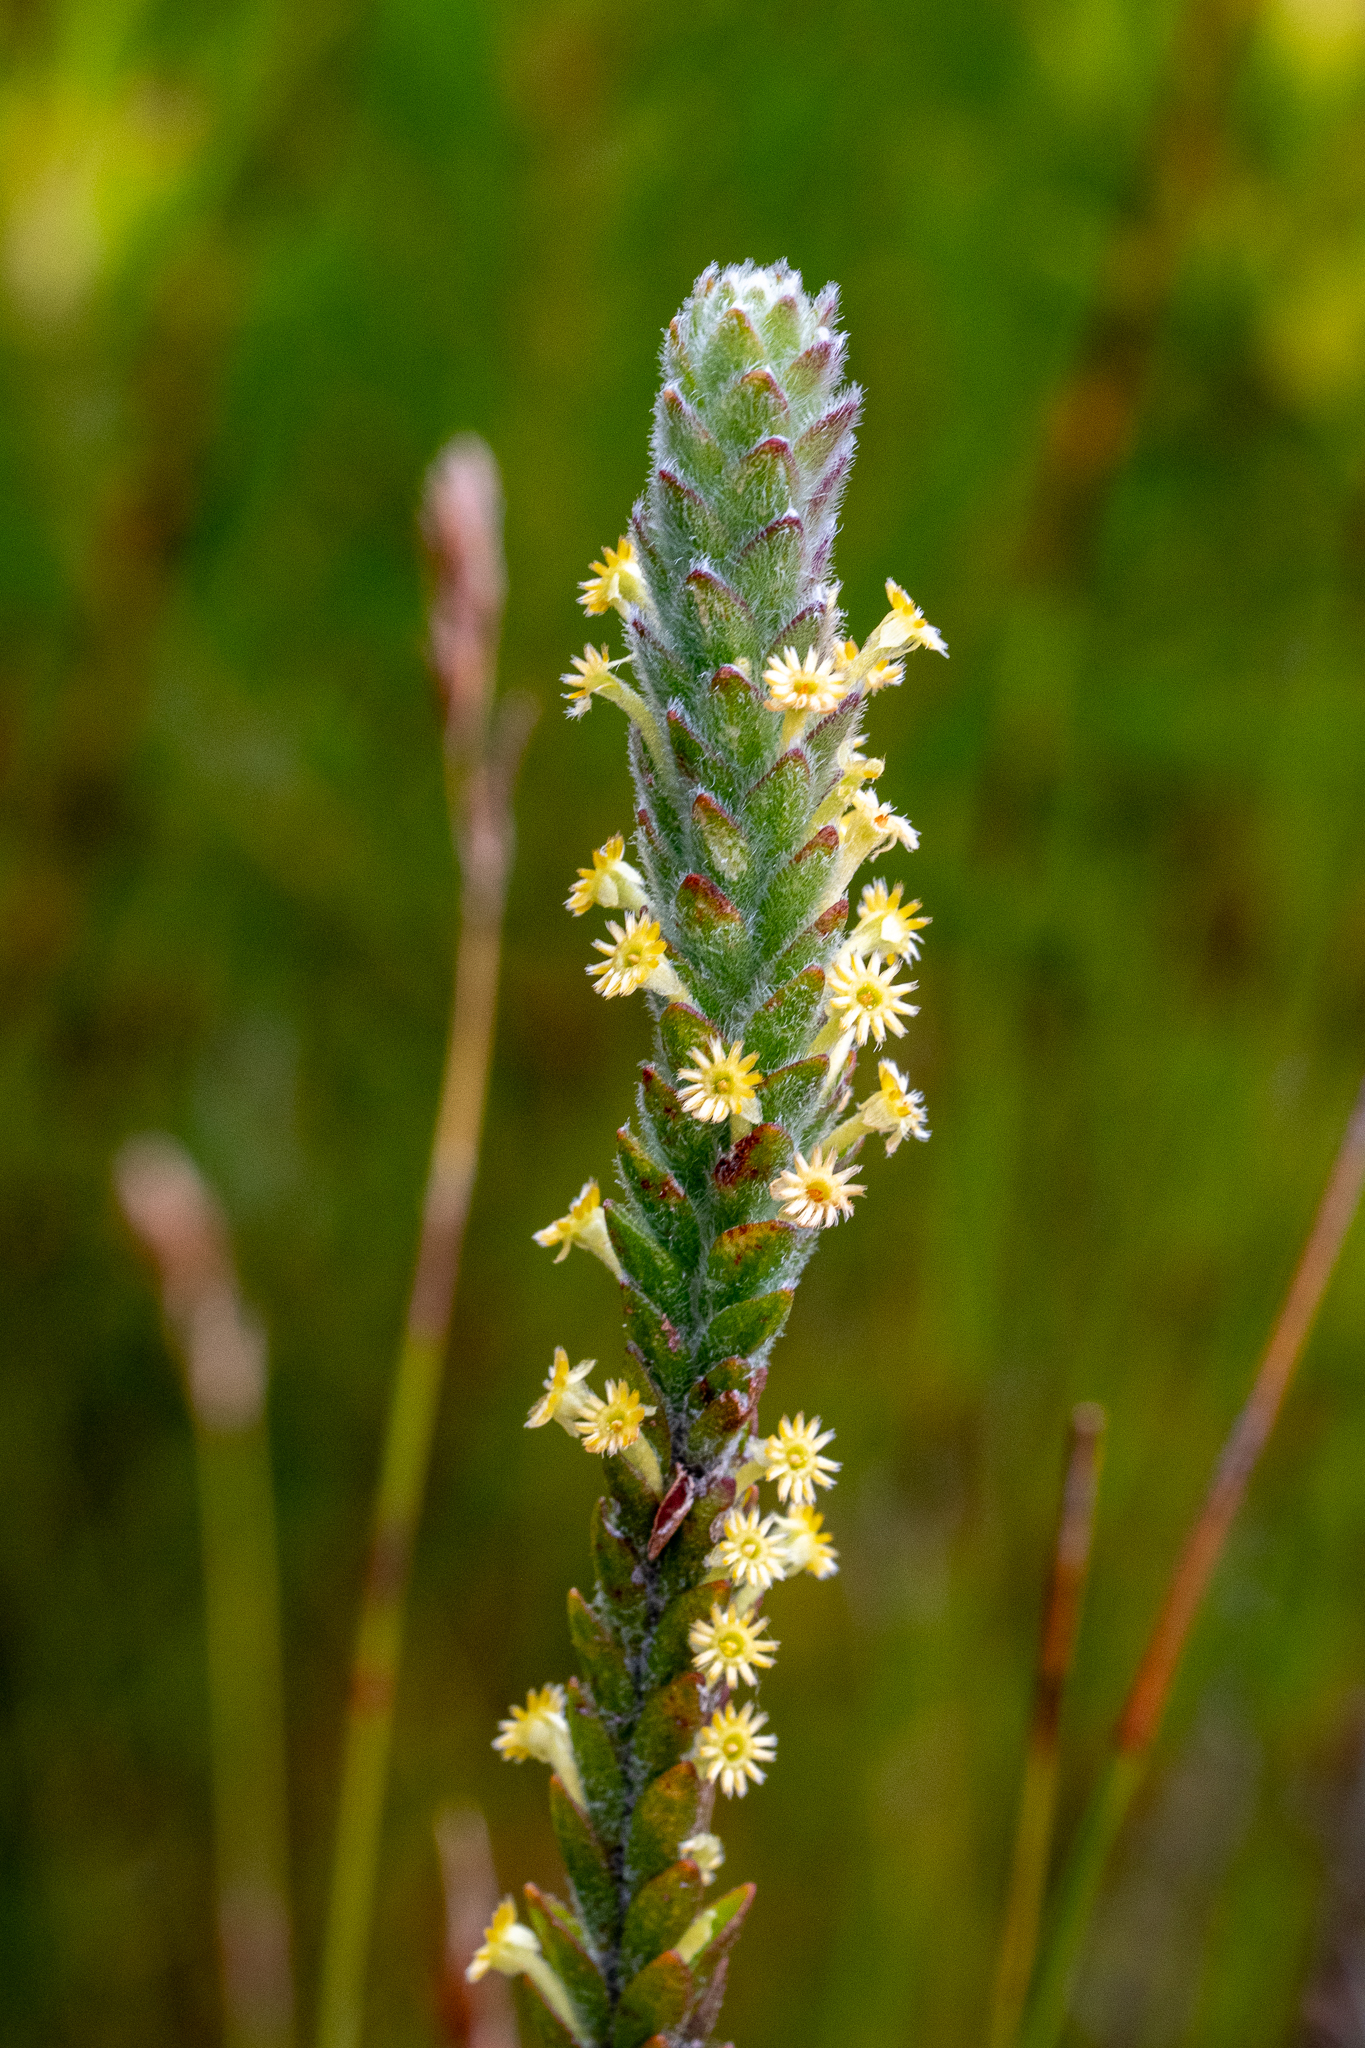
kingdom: Plantae
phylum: Tracheophyta
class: Magnoliopsida
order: Malvales
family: Thymelaeaceae
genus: Struthiola
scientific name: Struthiola tomentosa
